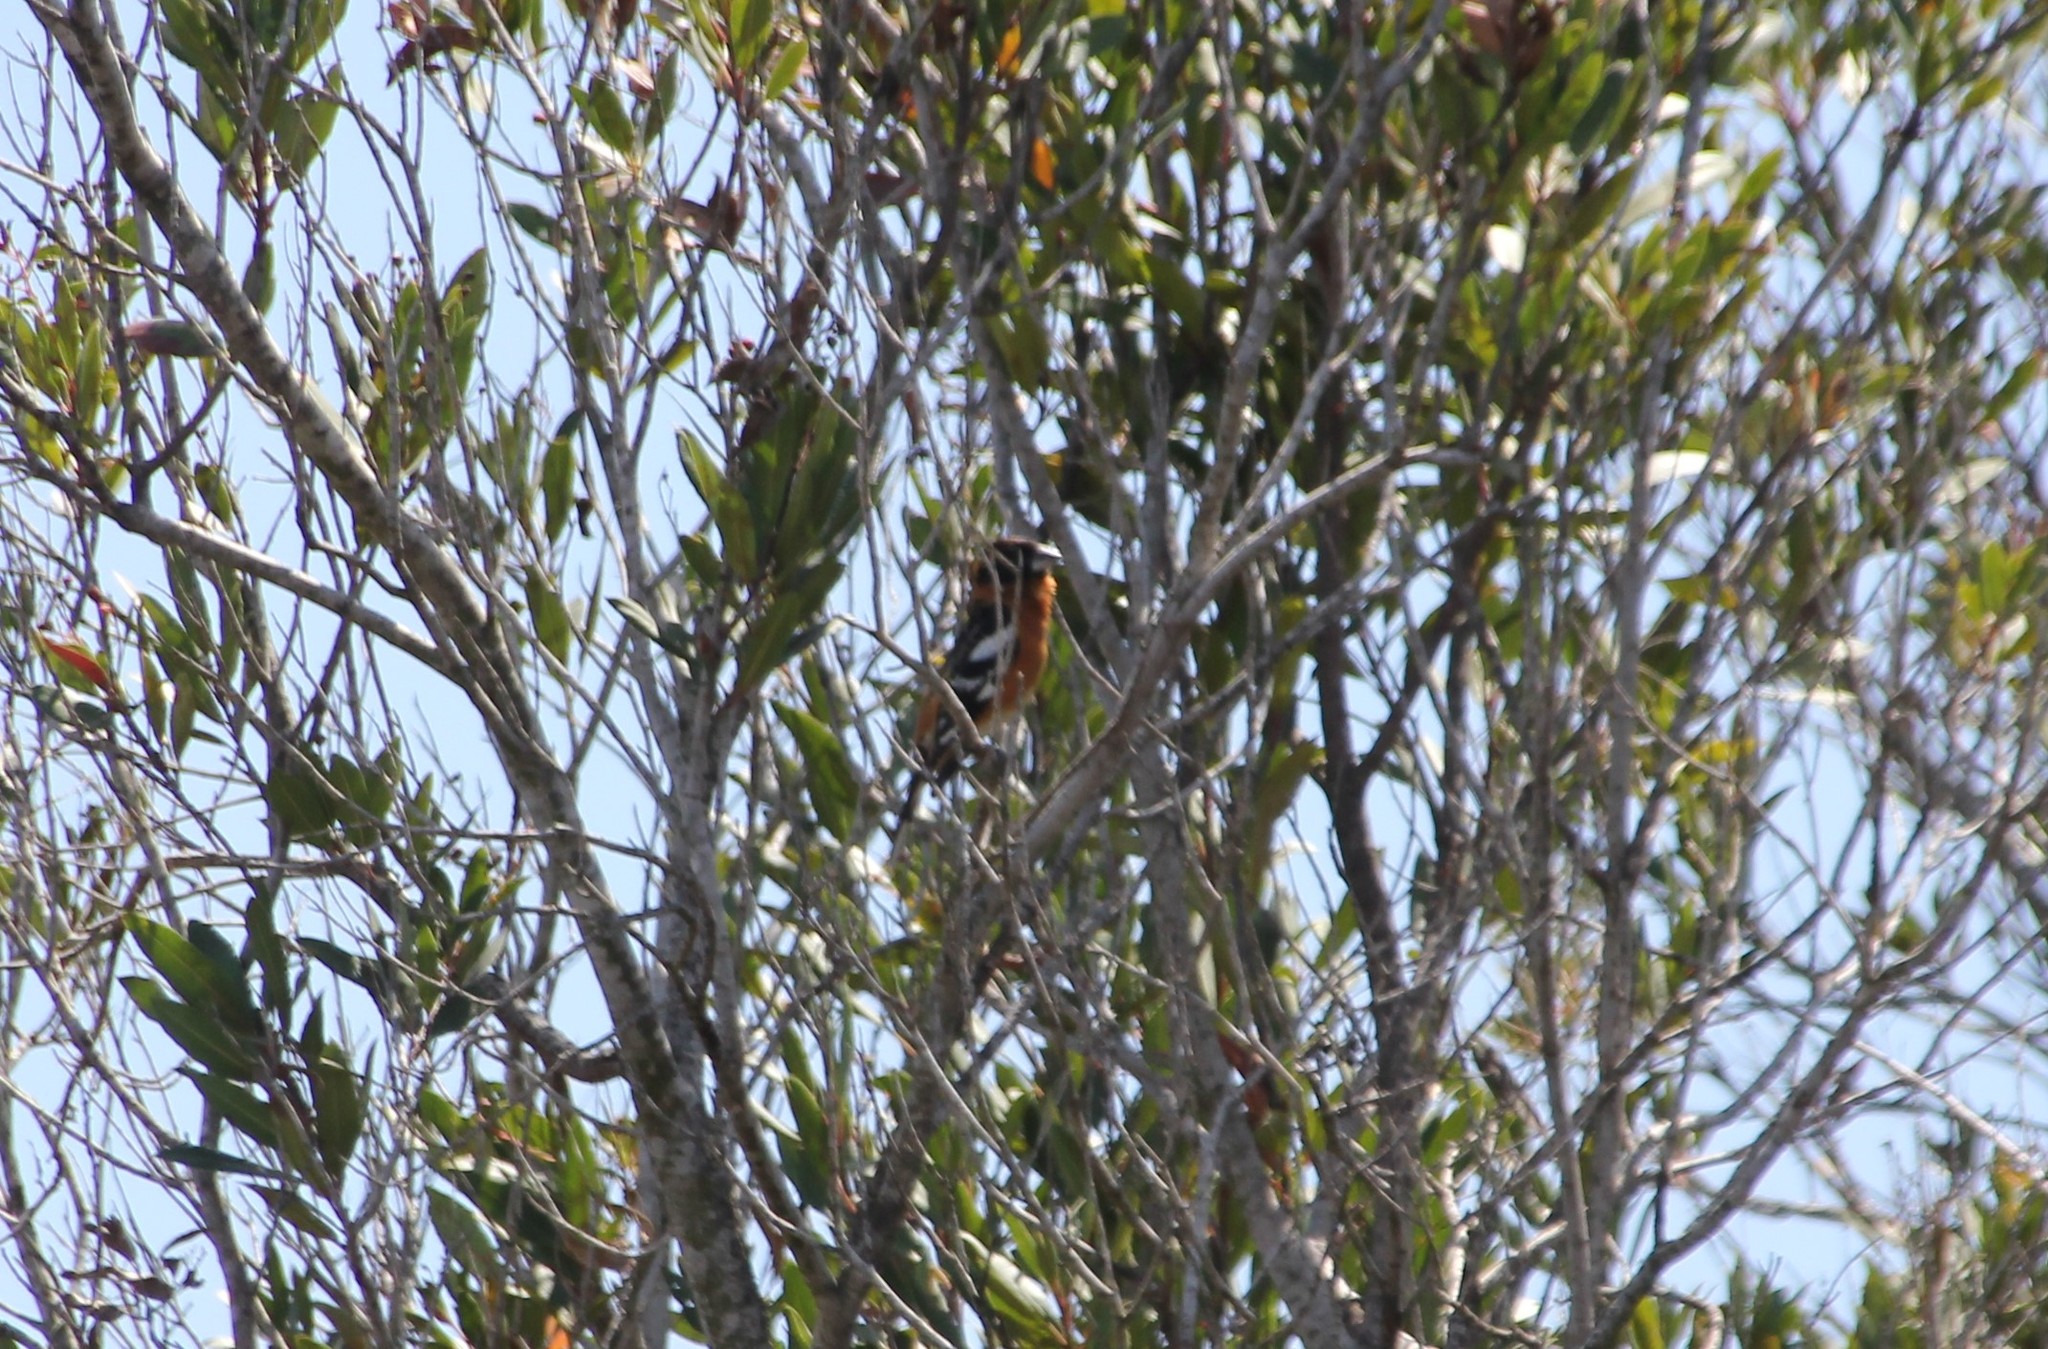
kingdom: Animalia
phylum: Chordata
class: Aves
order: Passeriformes
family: Cardinalidae
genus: Pheucticus
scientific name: Pheucticus melanocephalus
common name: Black-headed grosbeak
